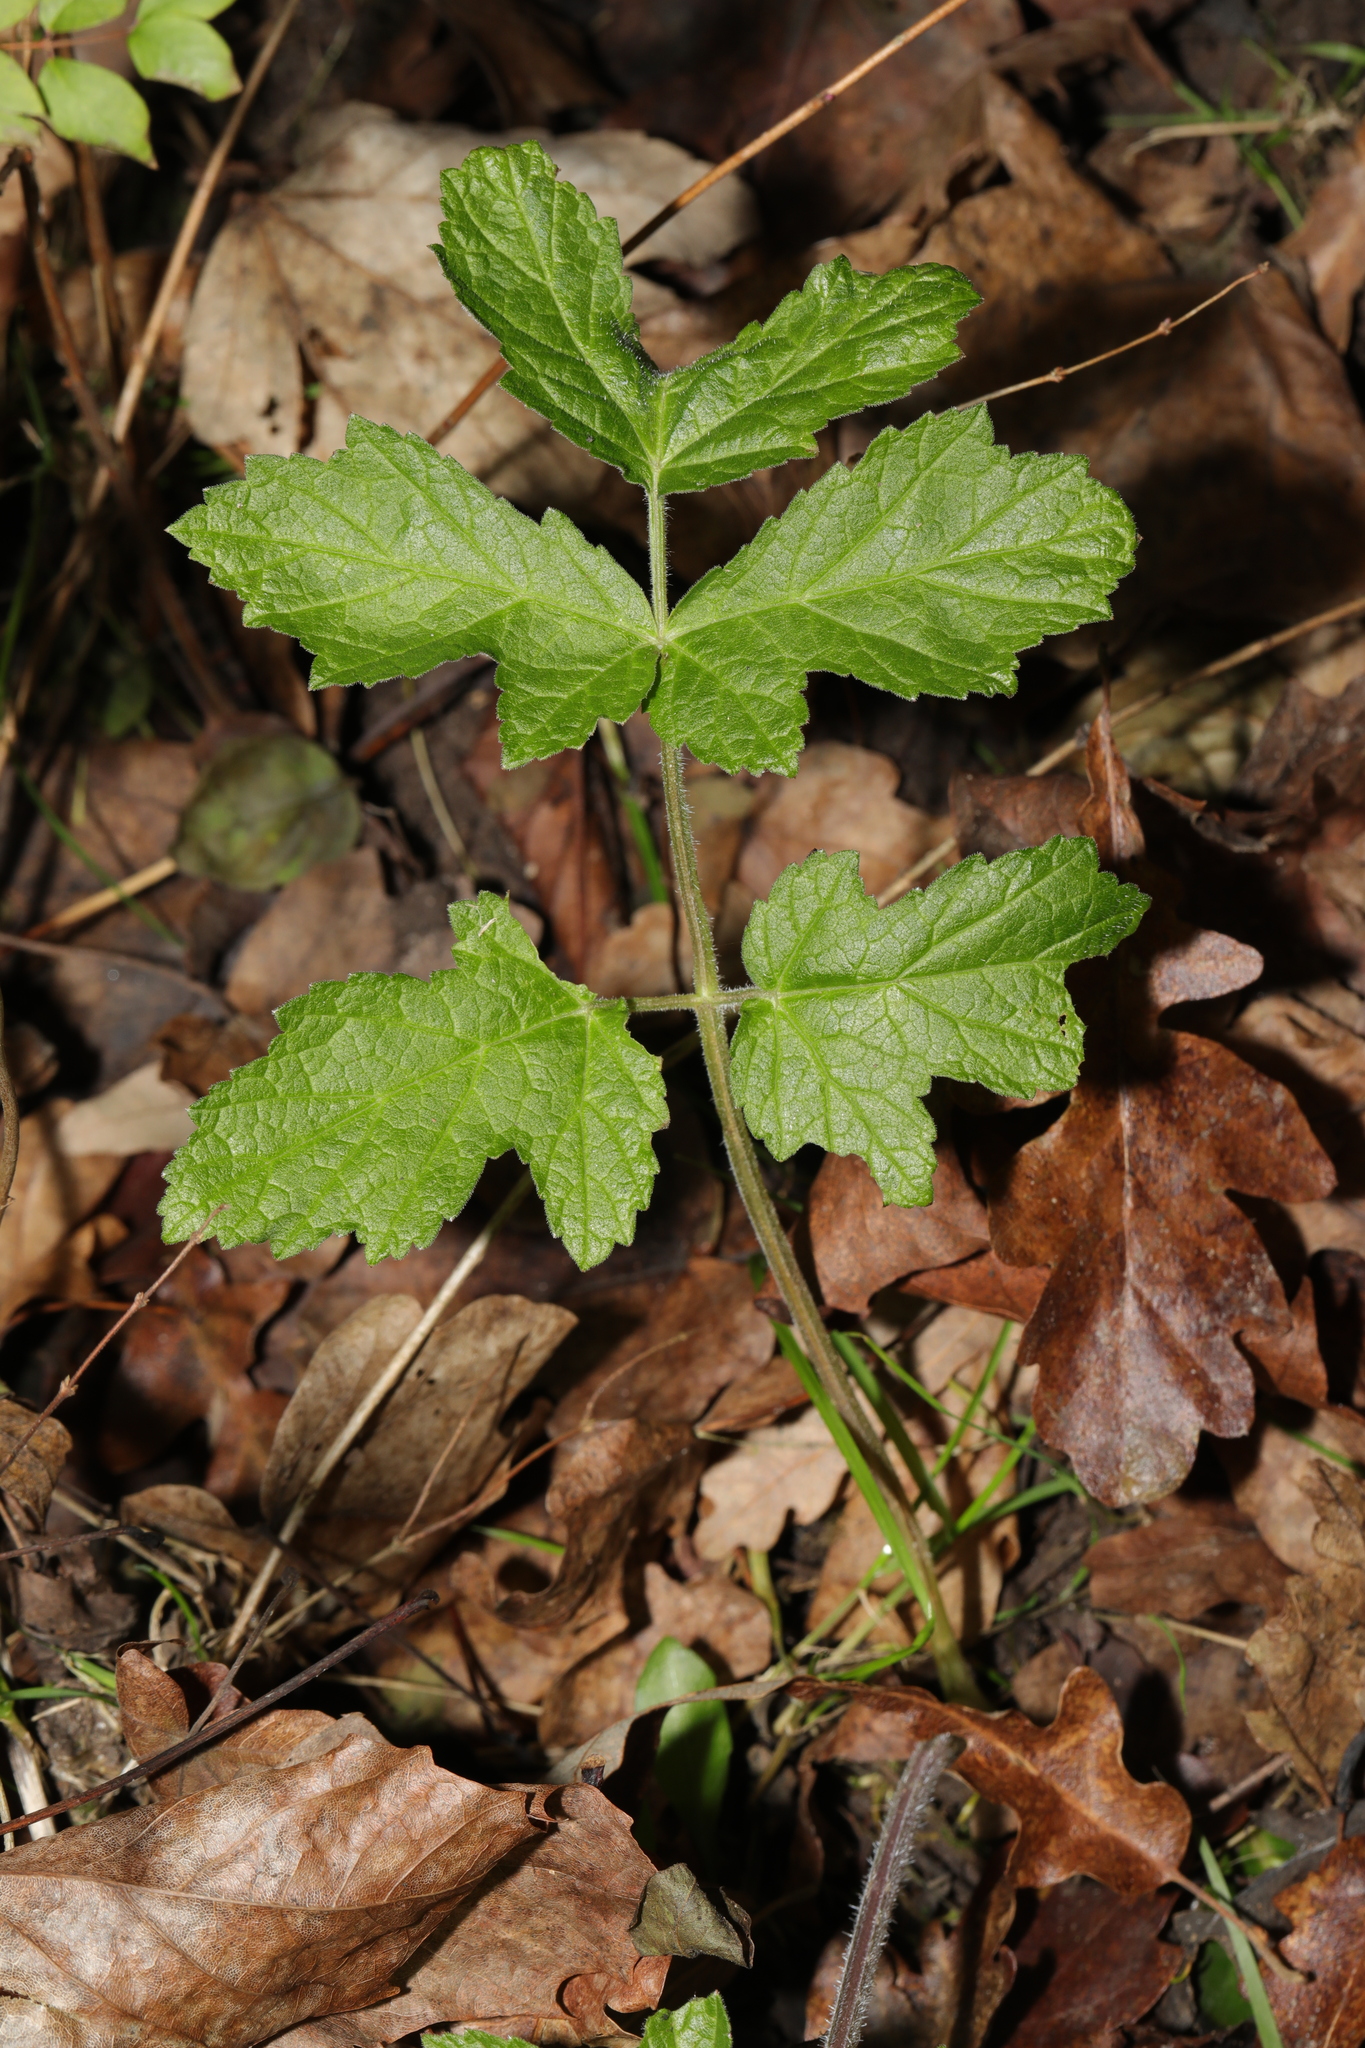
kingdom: Plantae
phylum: Tracheophyta
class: Magnoliopsida
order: Apiales
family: Apiaceae
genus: Heracleum
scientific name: Heracleum sphondylium
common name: Hogweed
